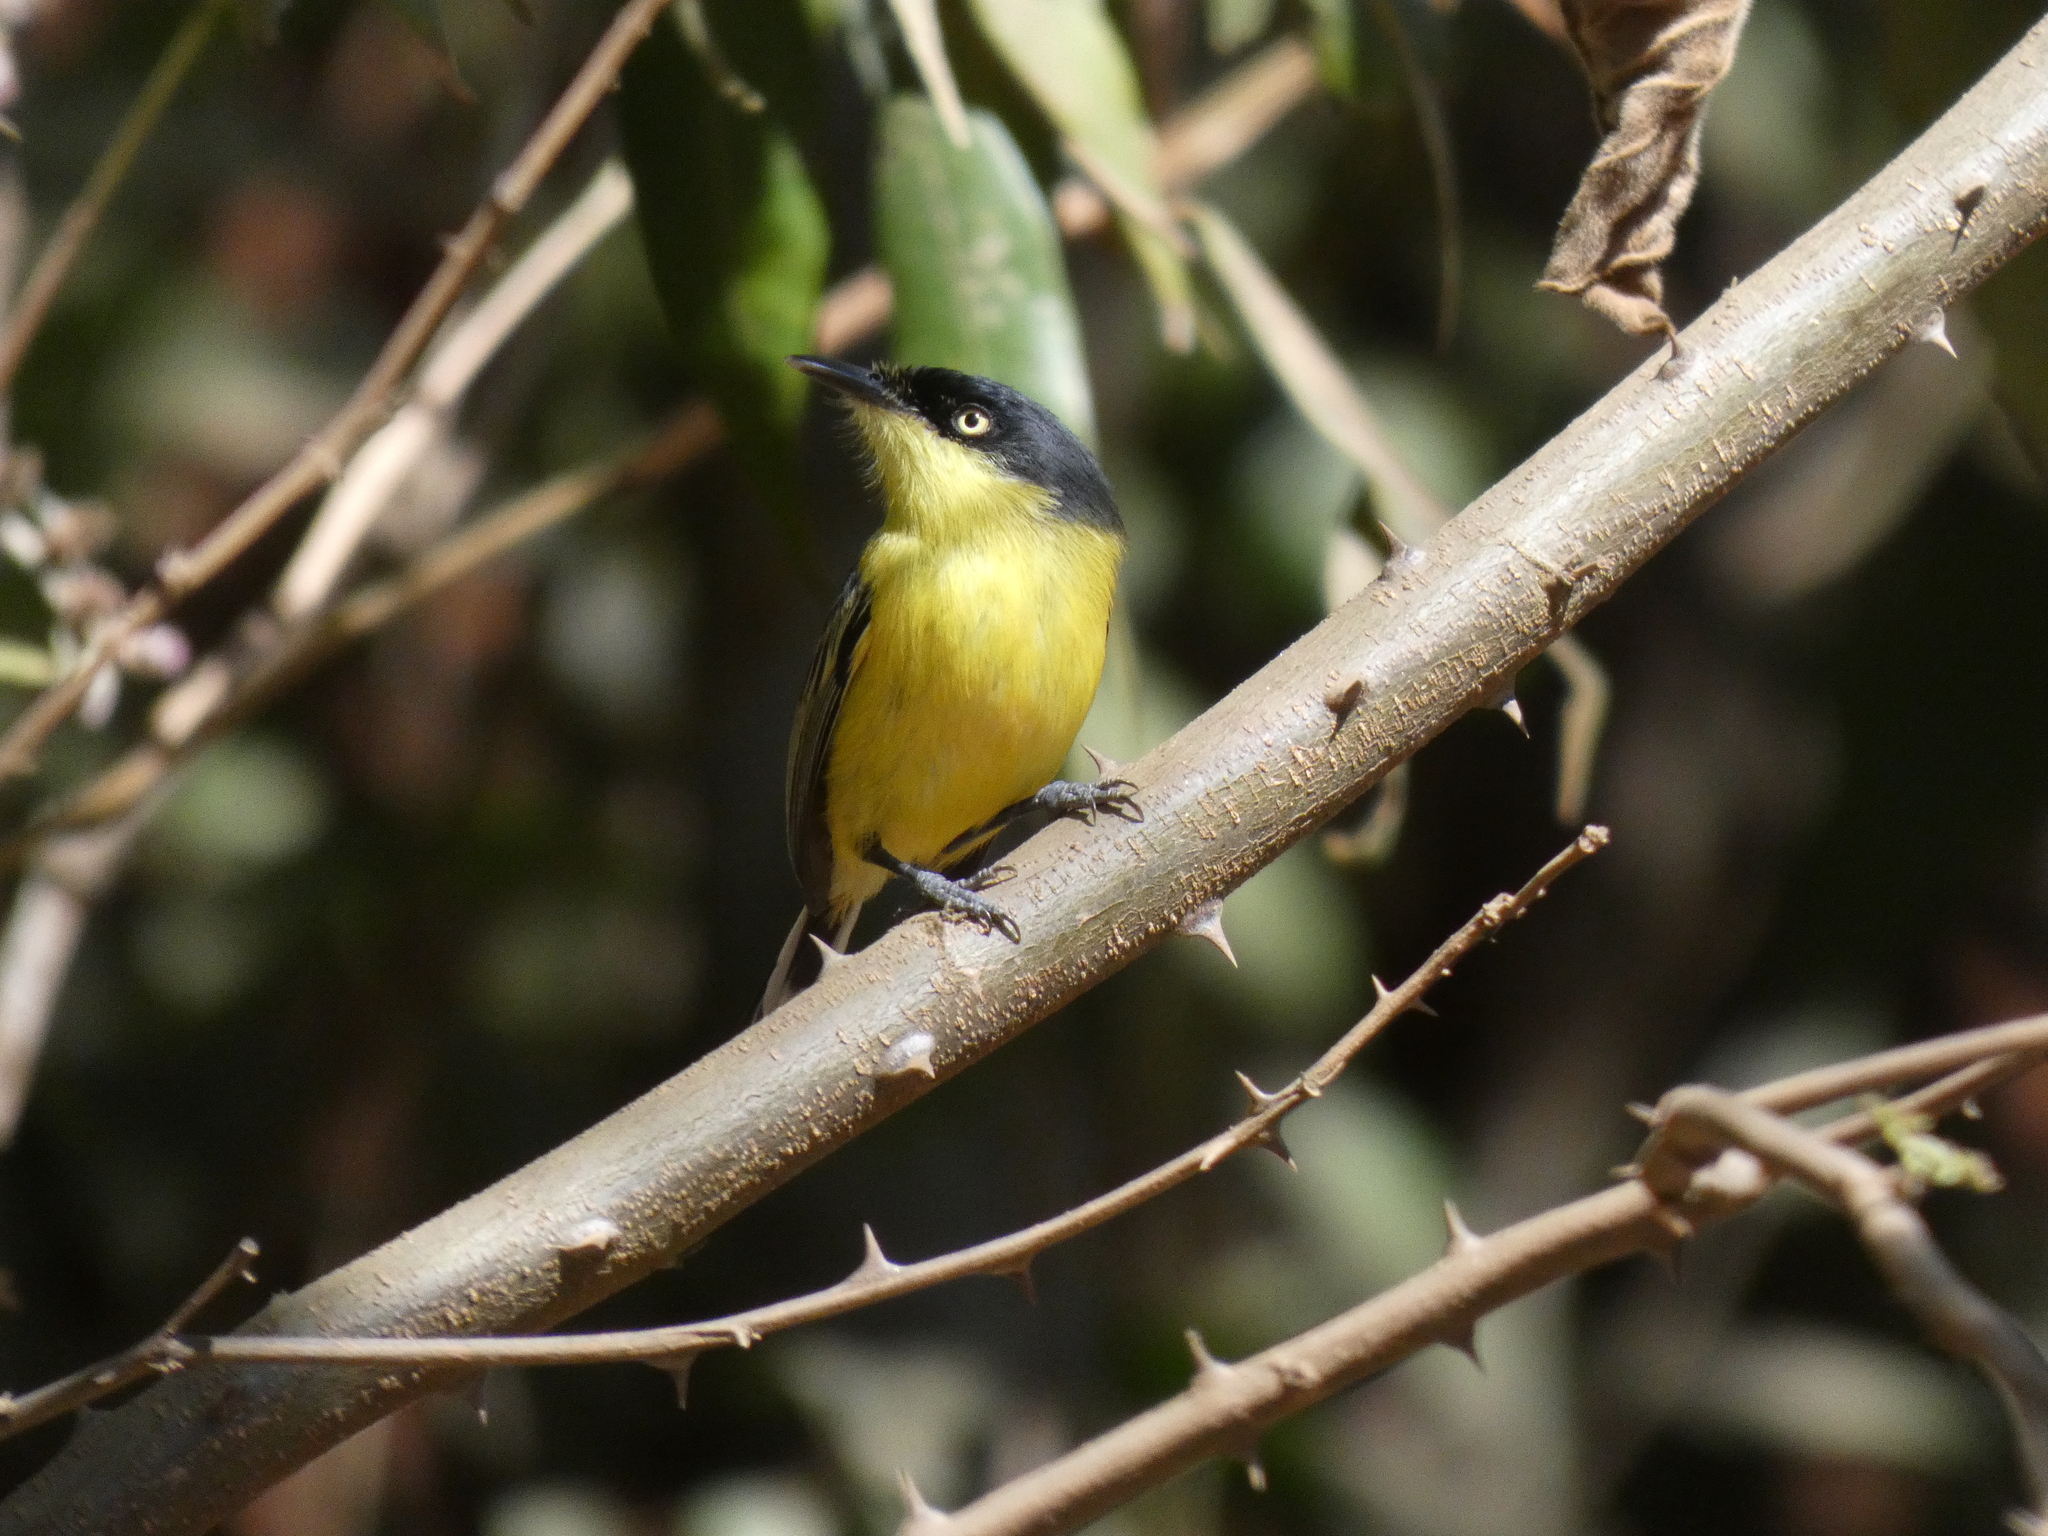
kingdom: Animalia
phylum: Chordata
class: Aves
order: Passeriformes
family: Tyrannidae
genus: Todirostrum
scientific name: Todirostrum cinereum
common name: Common tody-flycatcher
